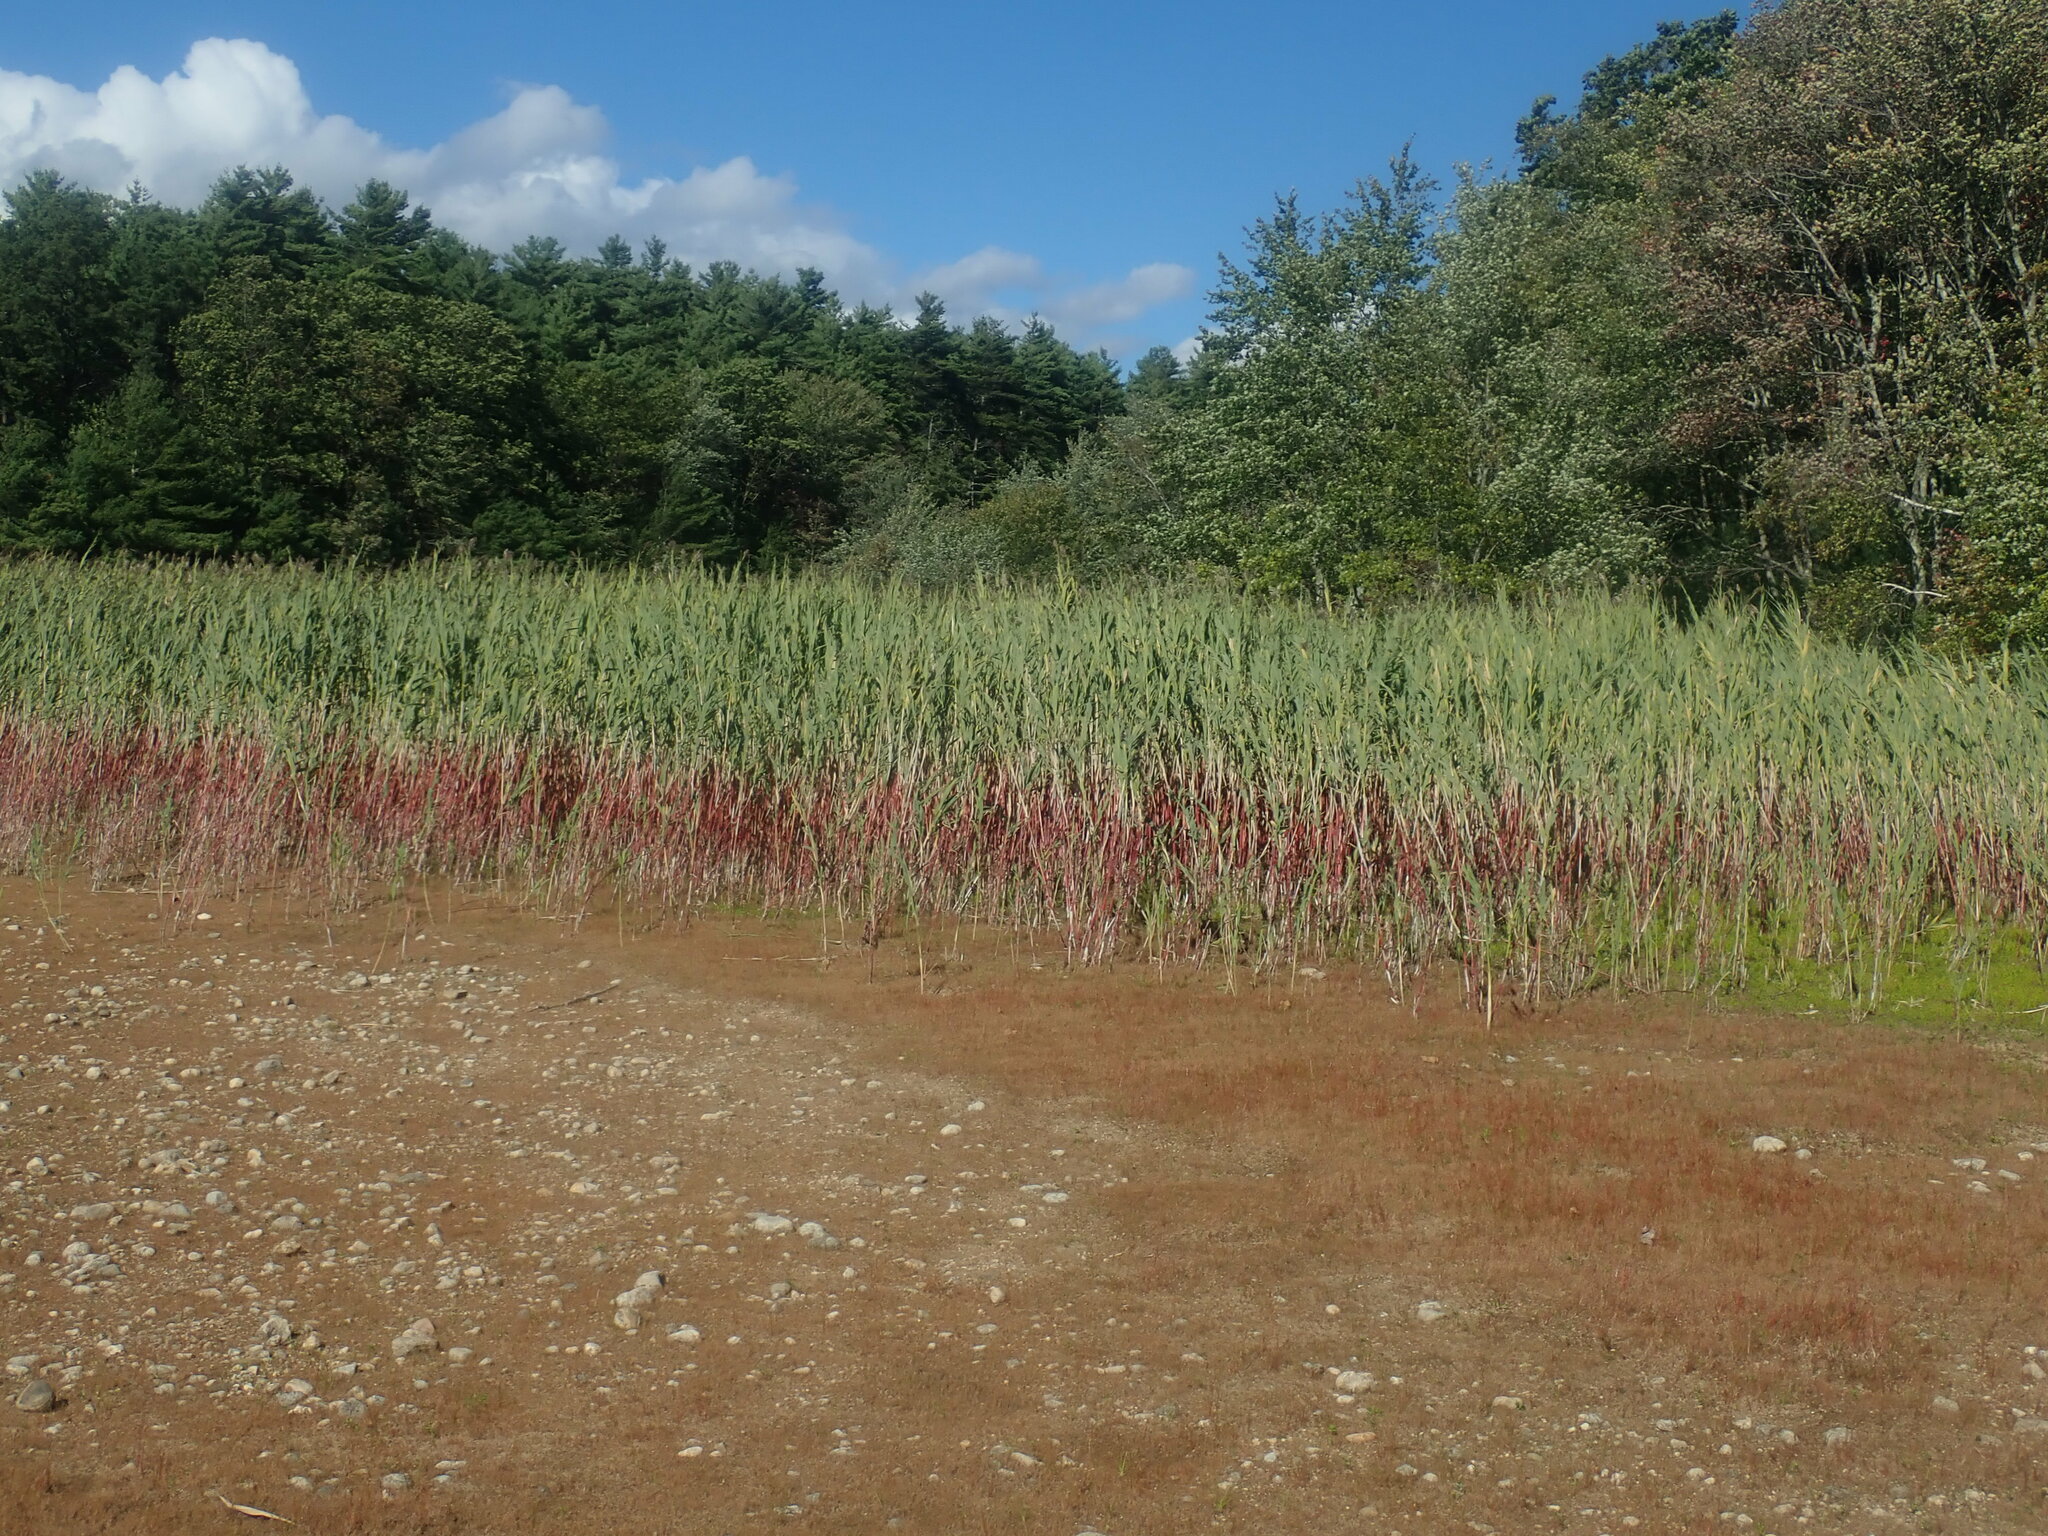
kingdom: Plantae
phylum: Tracheophyta
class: Liliopsida
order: Poales
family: Poaceae
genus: Phragmites
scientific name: Phragmites australis
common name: Common reed
